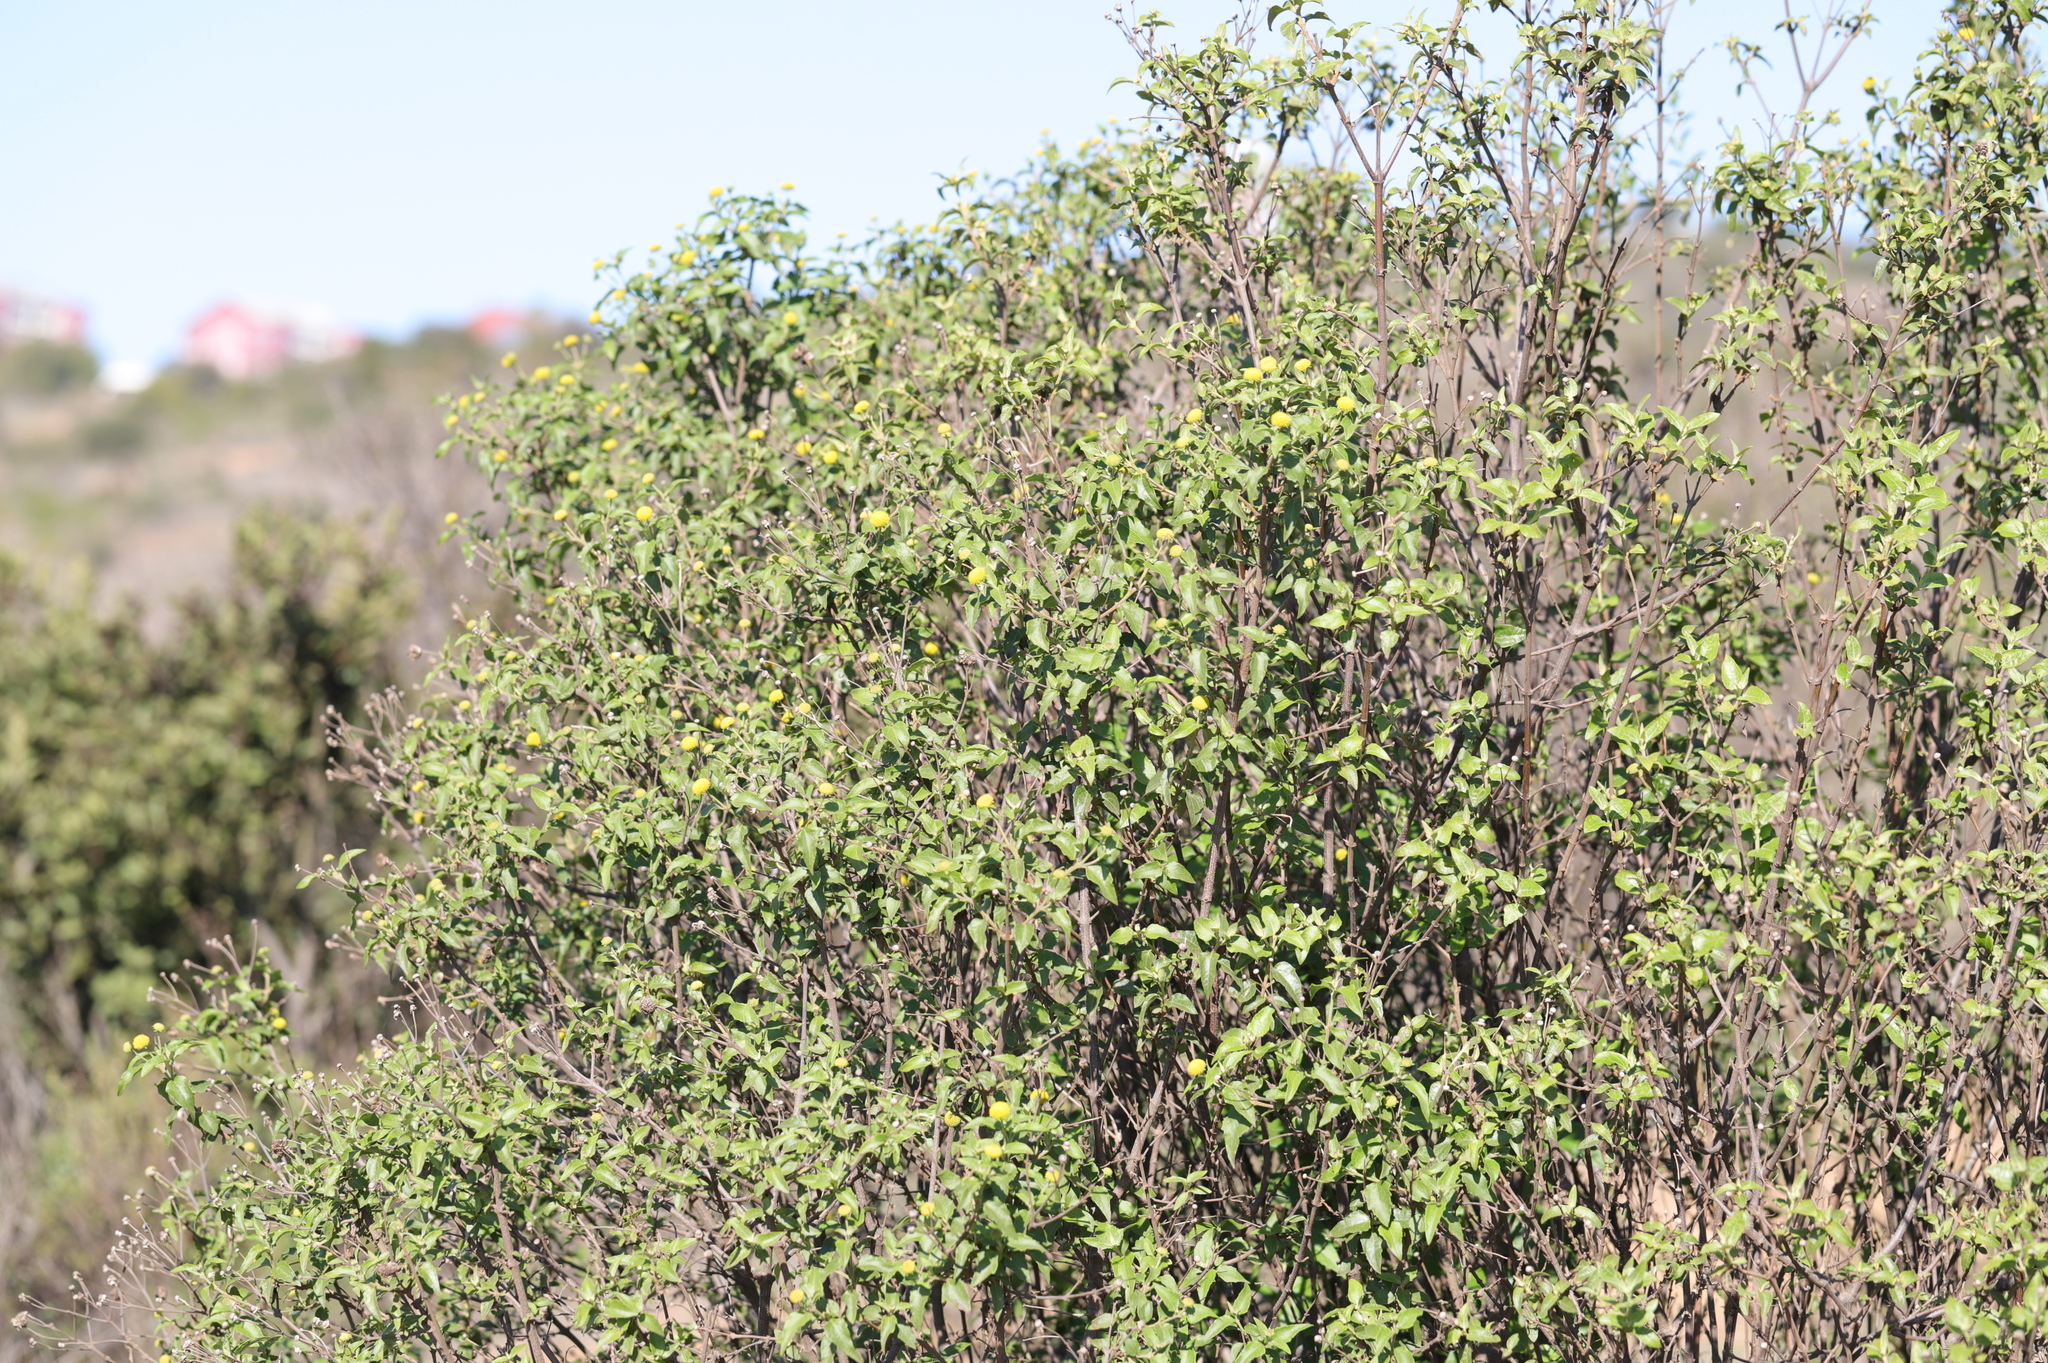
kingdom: Plantae
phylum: Tracheophyta
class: Magnoliopsida
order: Asterales
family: Asteraceae
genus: Podanthus
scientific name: Podanthus mitiqui
